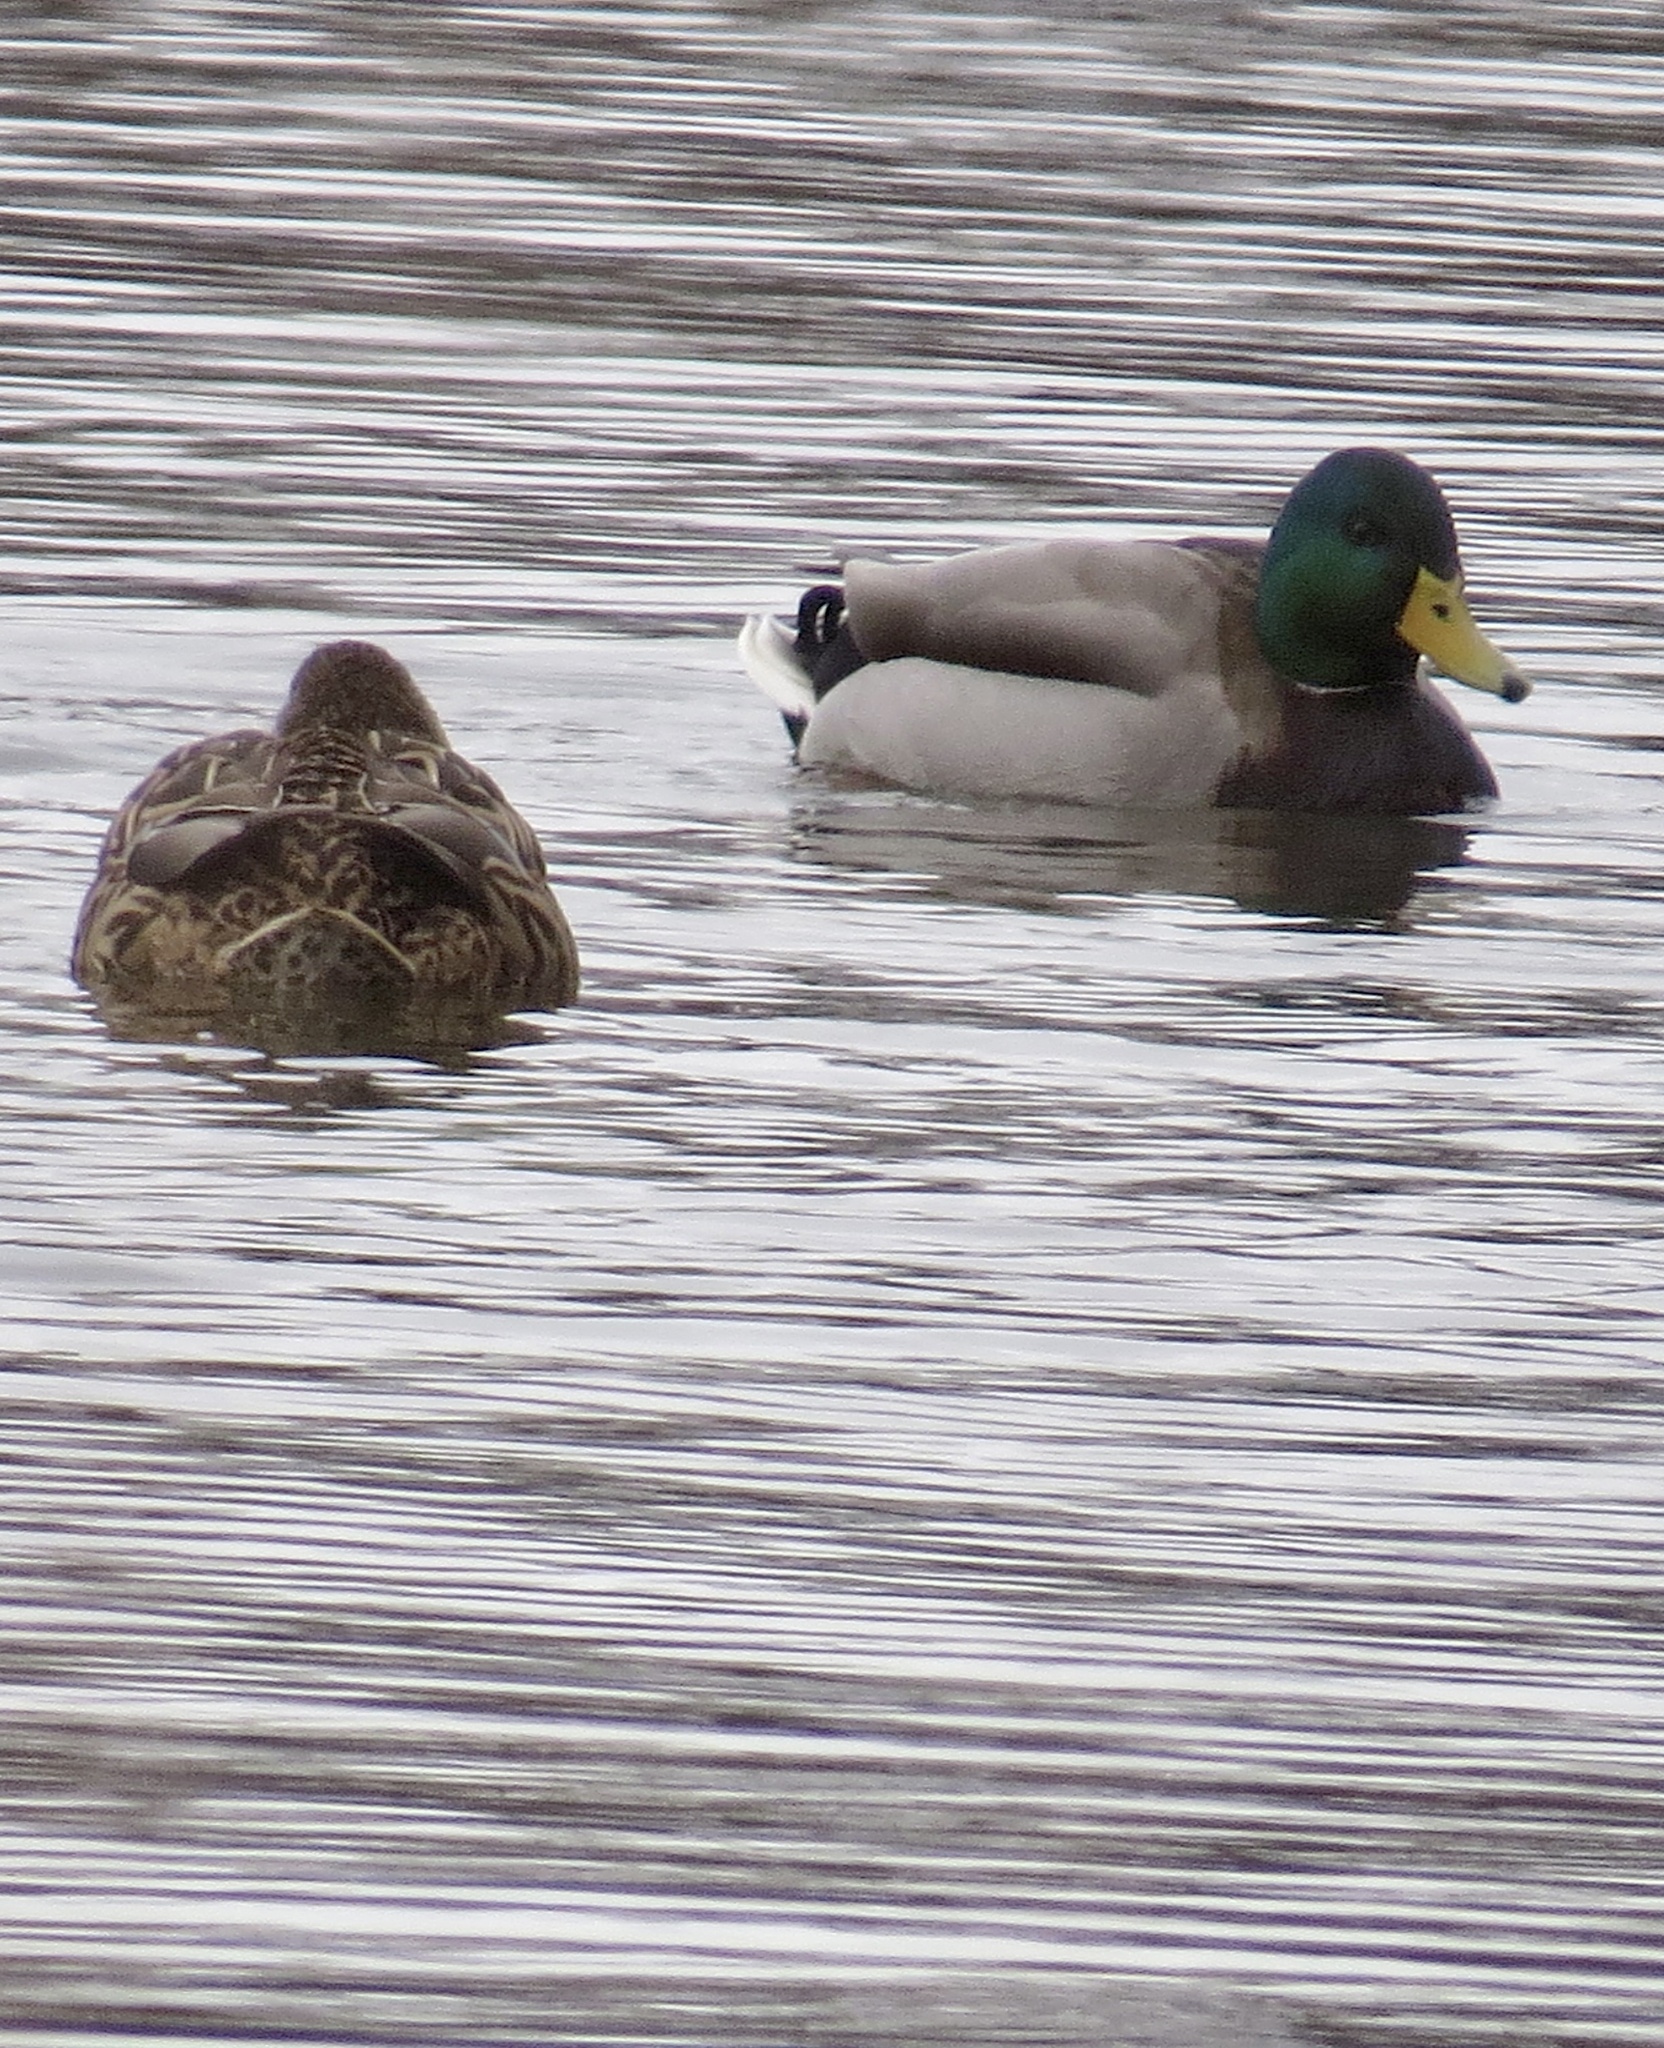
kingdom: Animalia
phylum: Chordata
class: Aves
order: Anseriformes
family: Anatidae
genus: Anas
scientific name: Anas platyrhynchos
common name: Mallard
